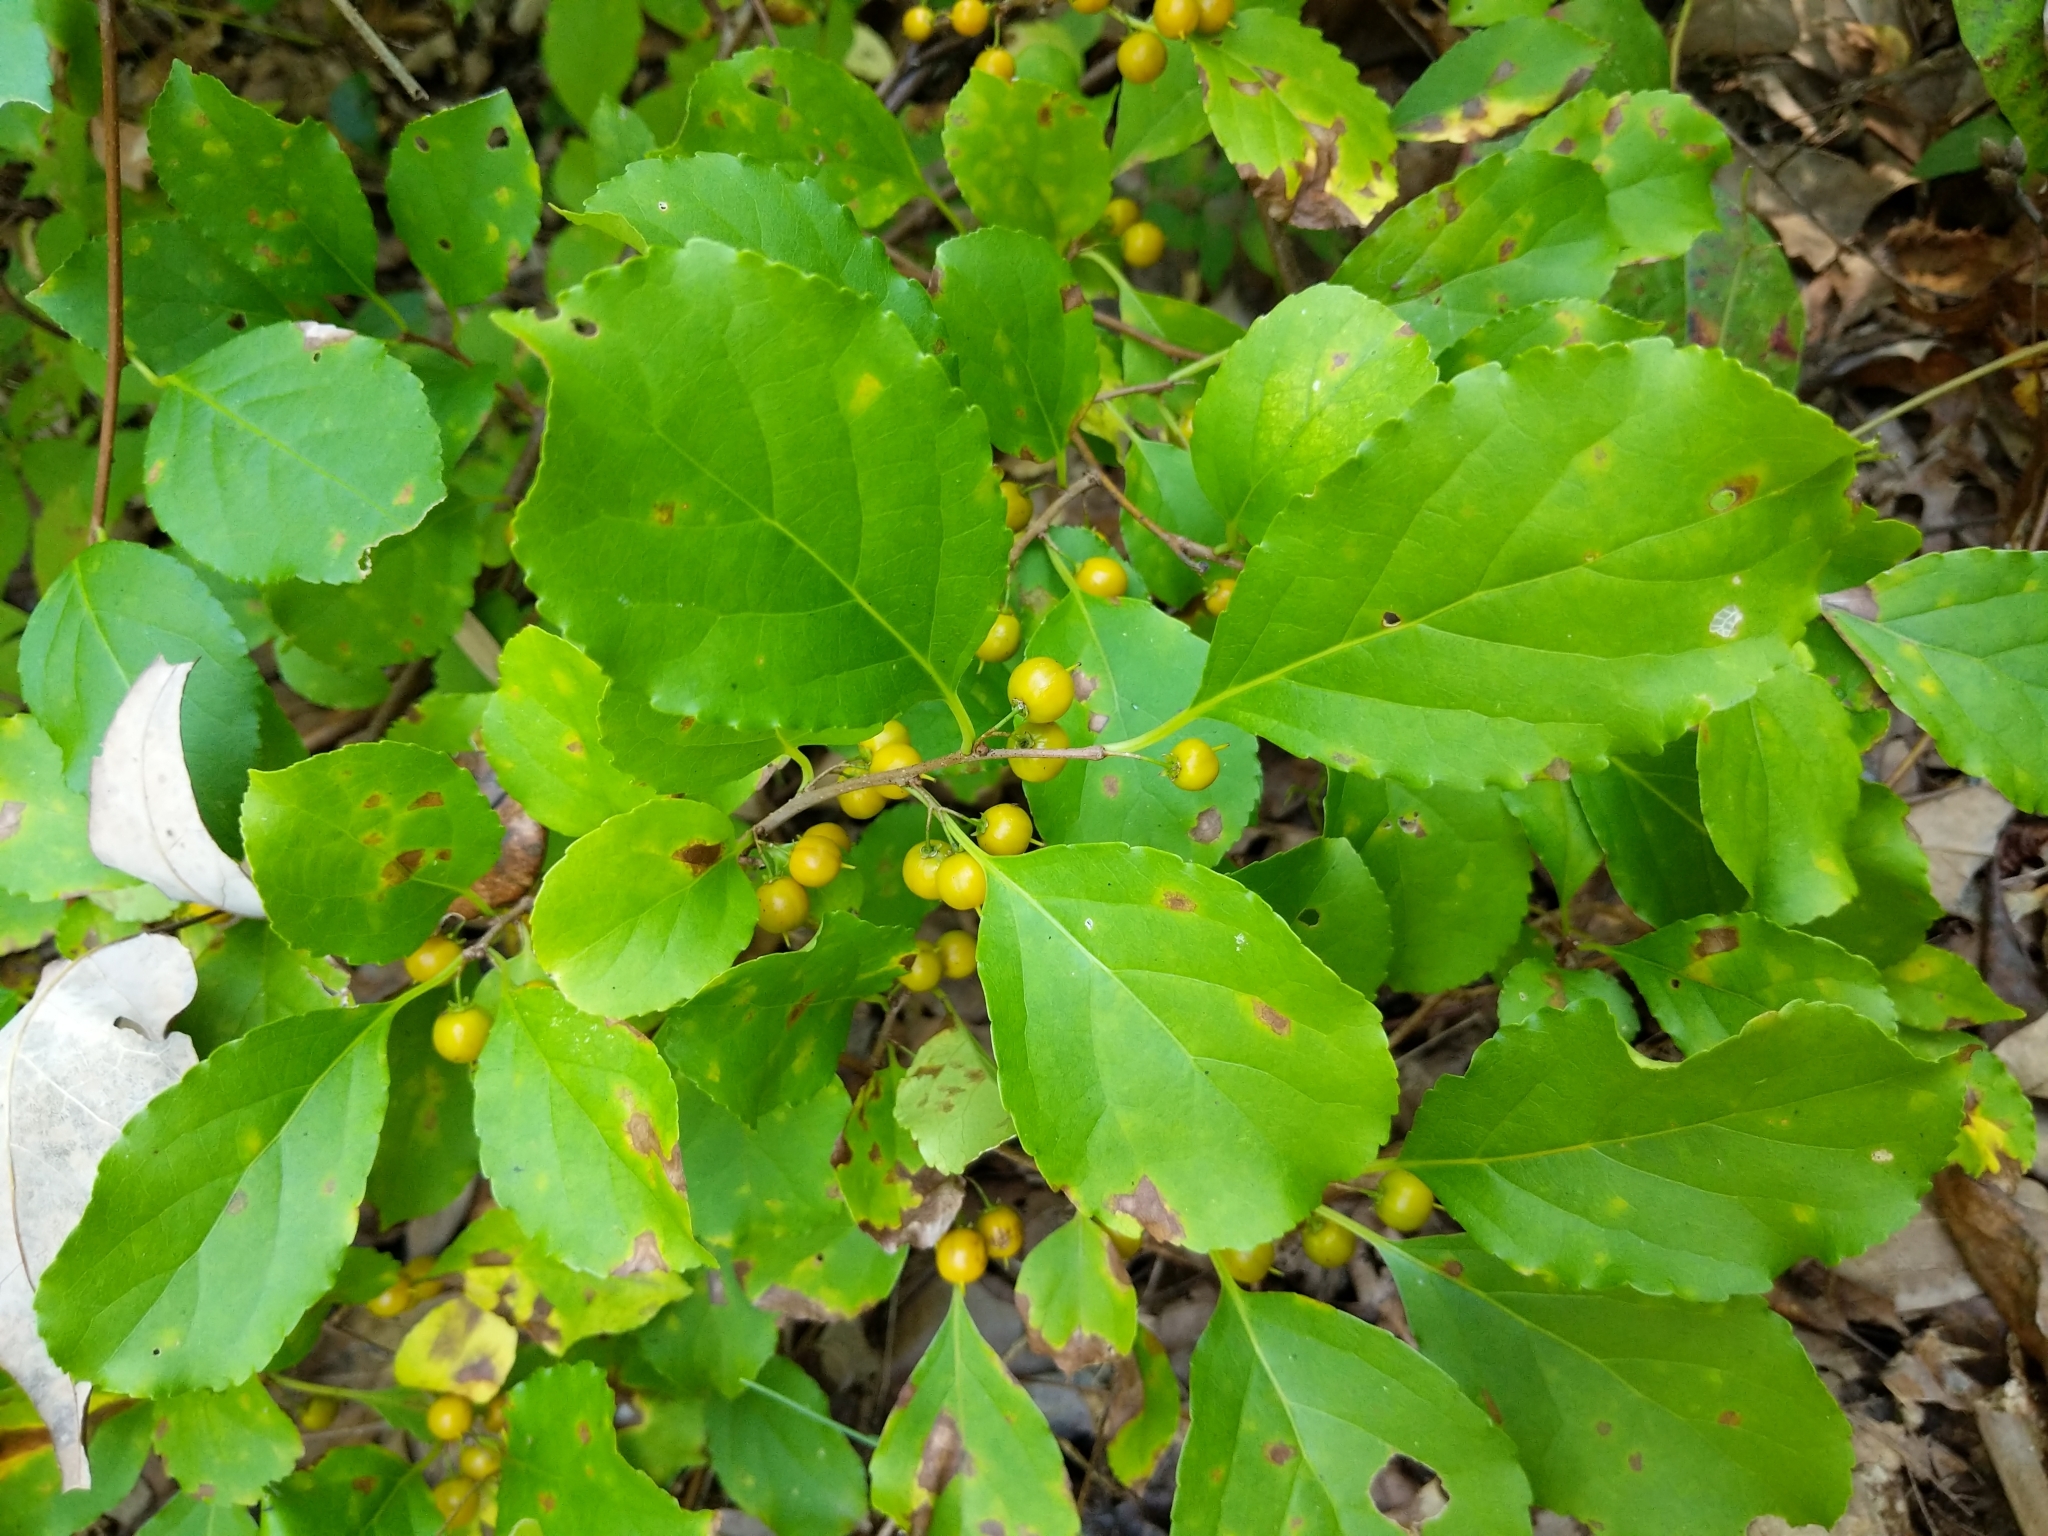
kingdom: Plantae
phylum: Tracheophyta
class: Magnoliopsida
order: Celastrales
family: Celastraceae
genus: Celastrus
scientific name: Celastrus orbiculatus
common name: Oriental bittersweet
